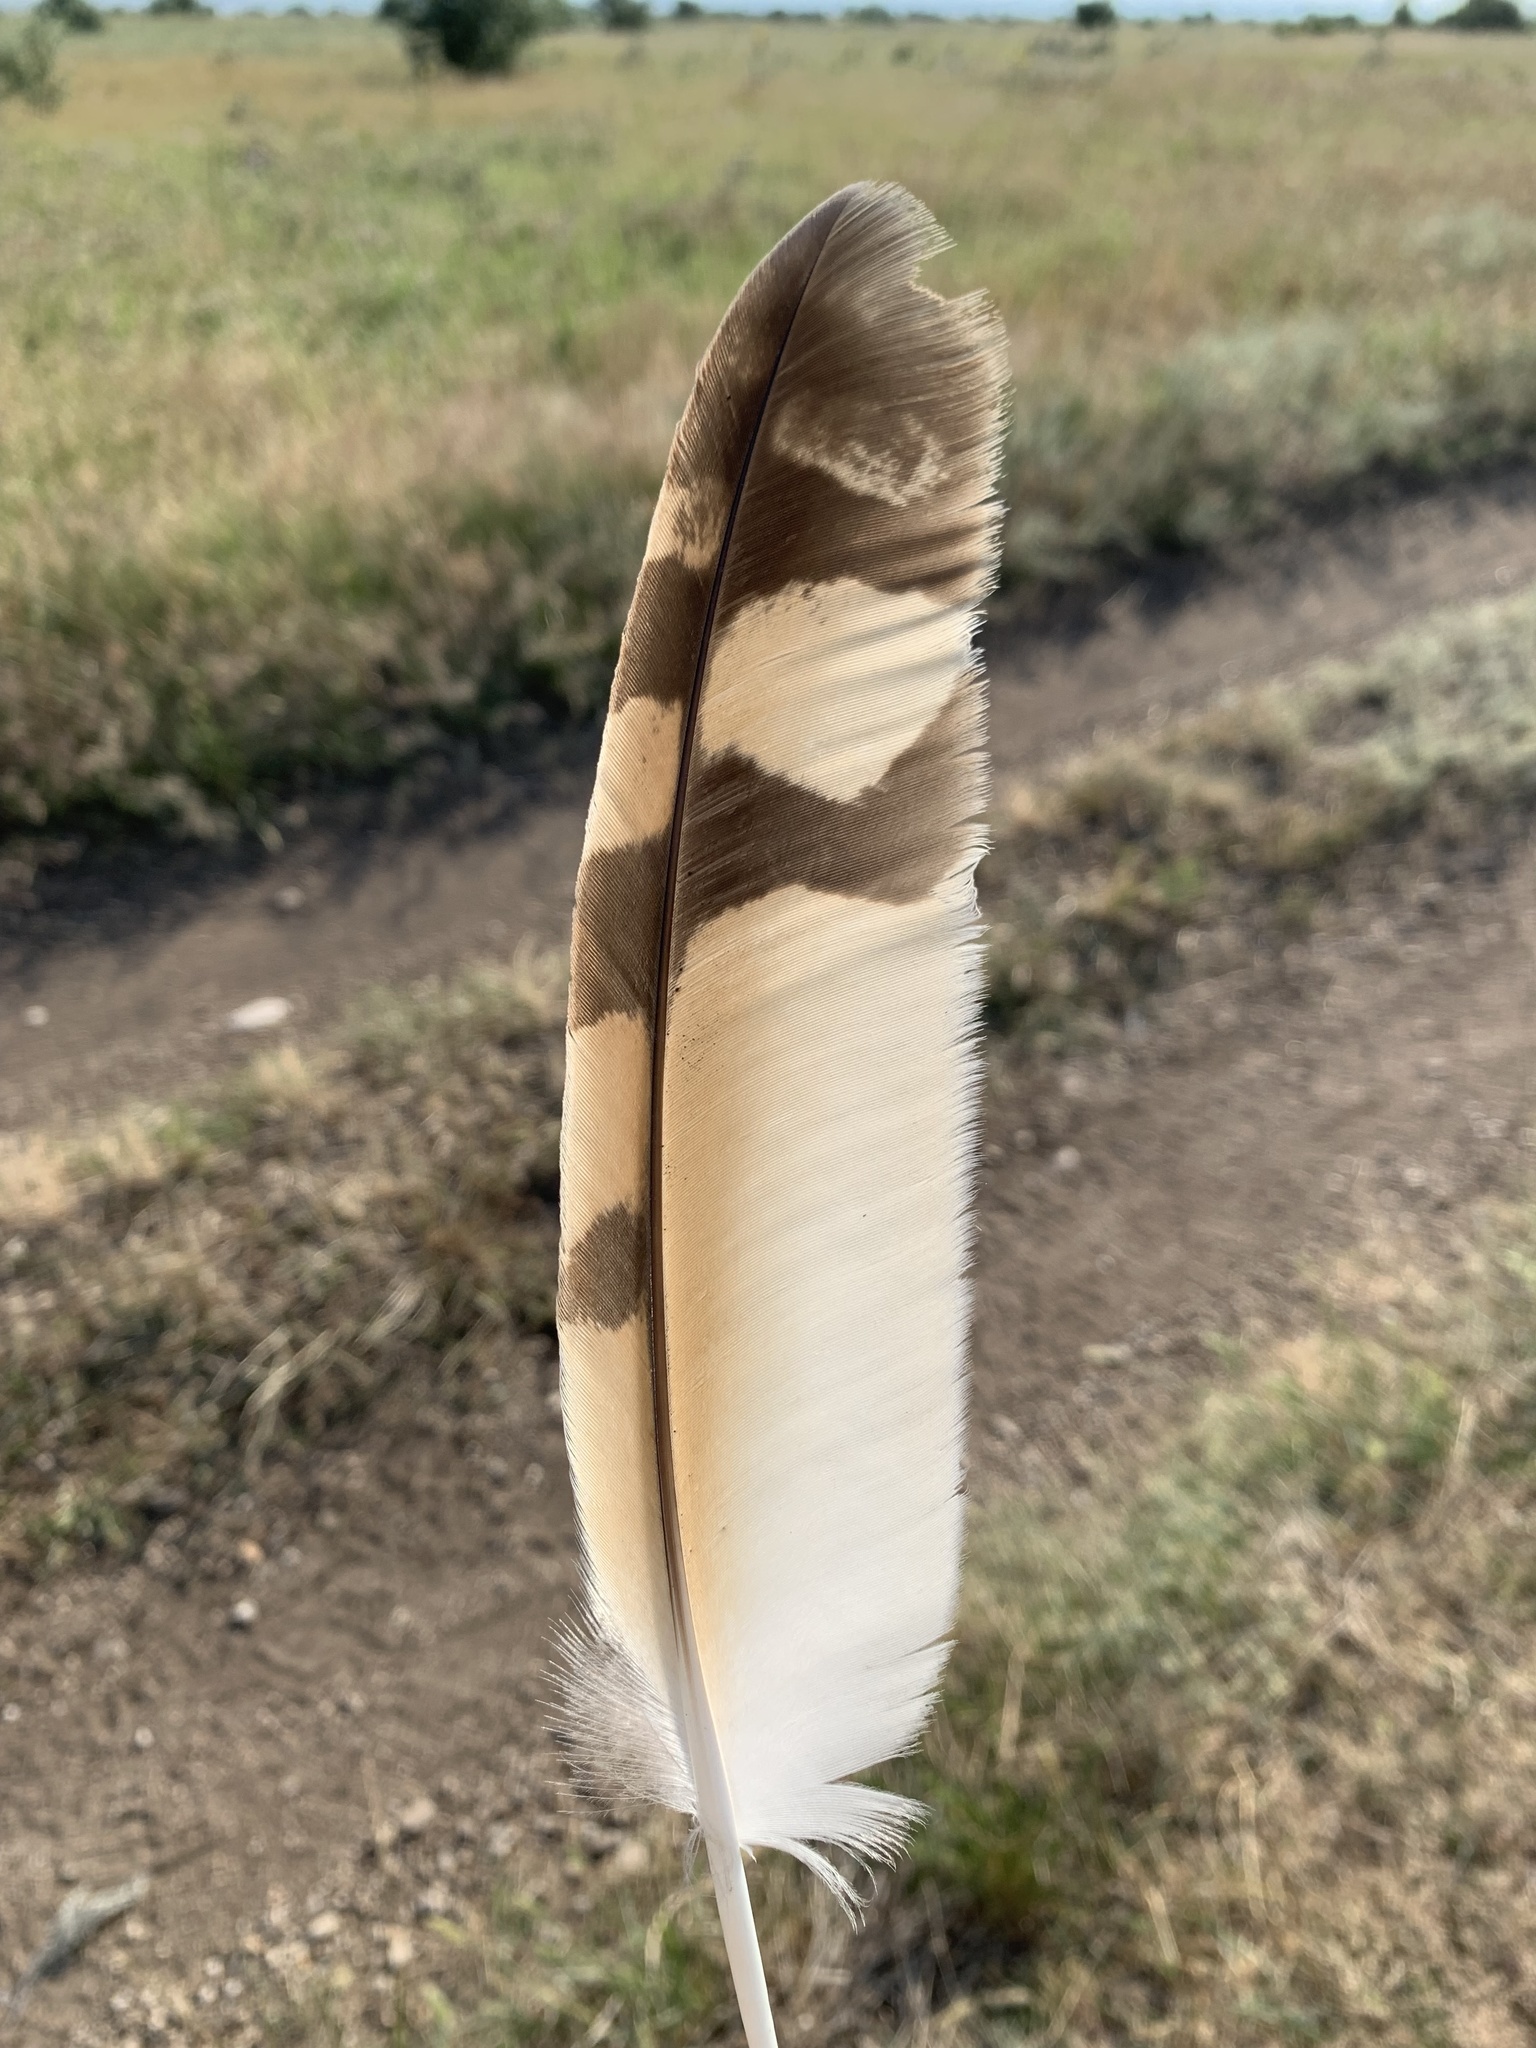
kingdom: Animalia
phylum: Chordata
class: Aves
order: Strigiformes
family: Strigidae
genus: Asio
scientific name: Asio flammeus
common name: Short-eared owl
